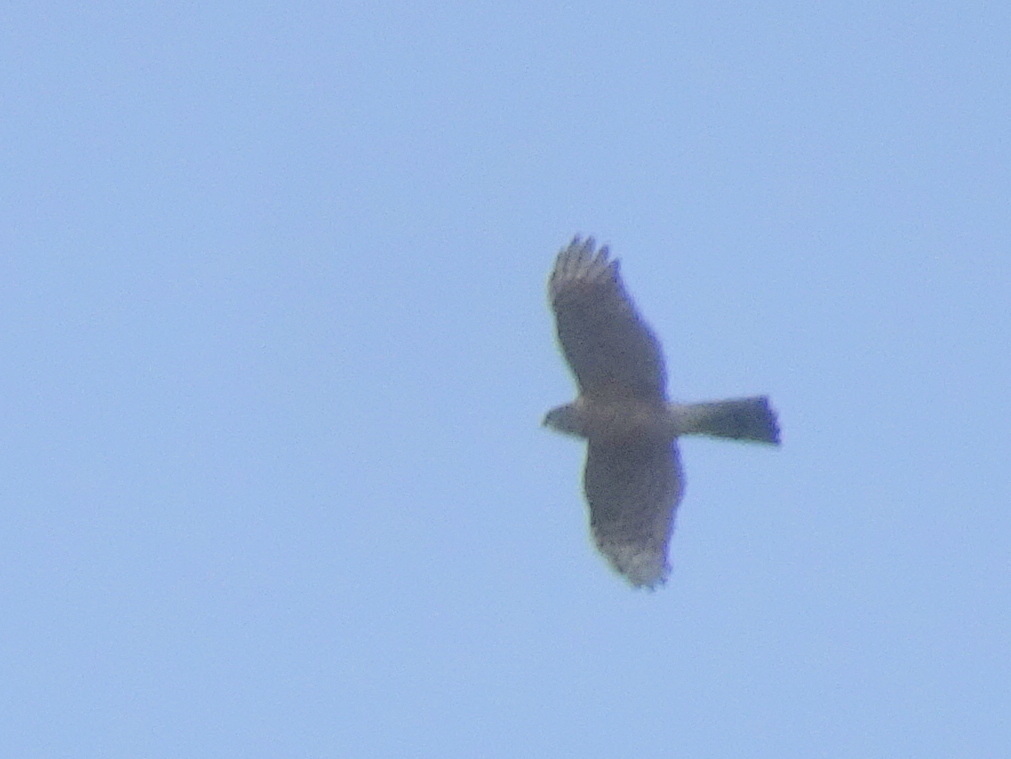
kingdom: Animalia
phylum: Chordata
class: Aves
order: Accipitriformes
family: Accipitridae
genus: Accipiter
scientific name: Accipiter striatus
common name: Sharp-shinned hawk
